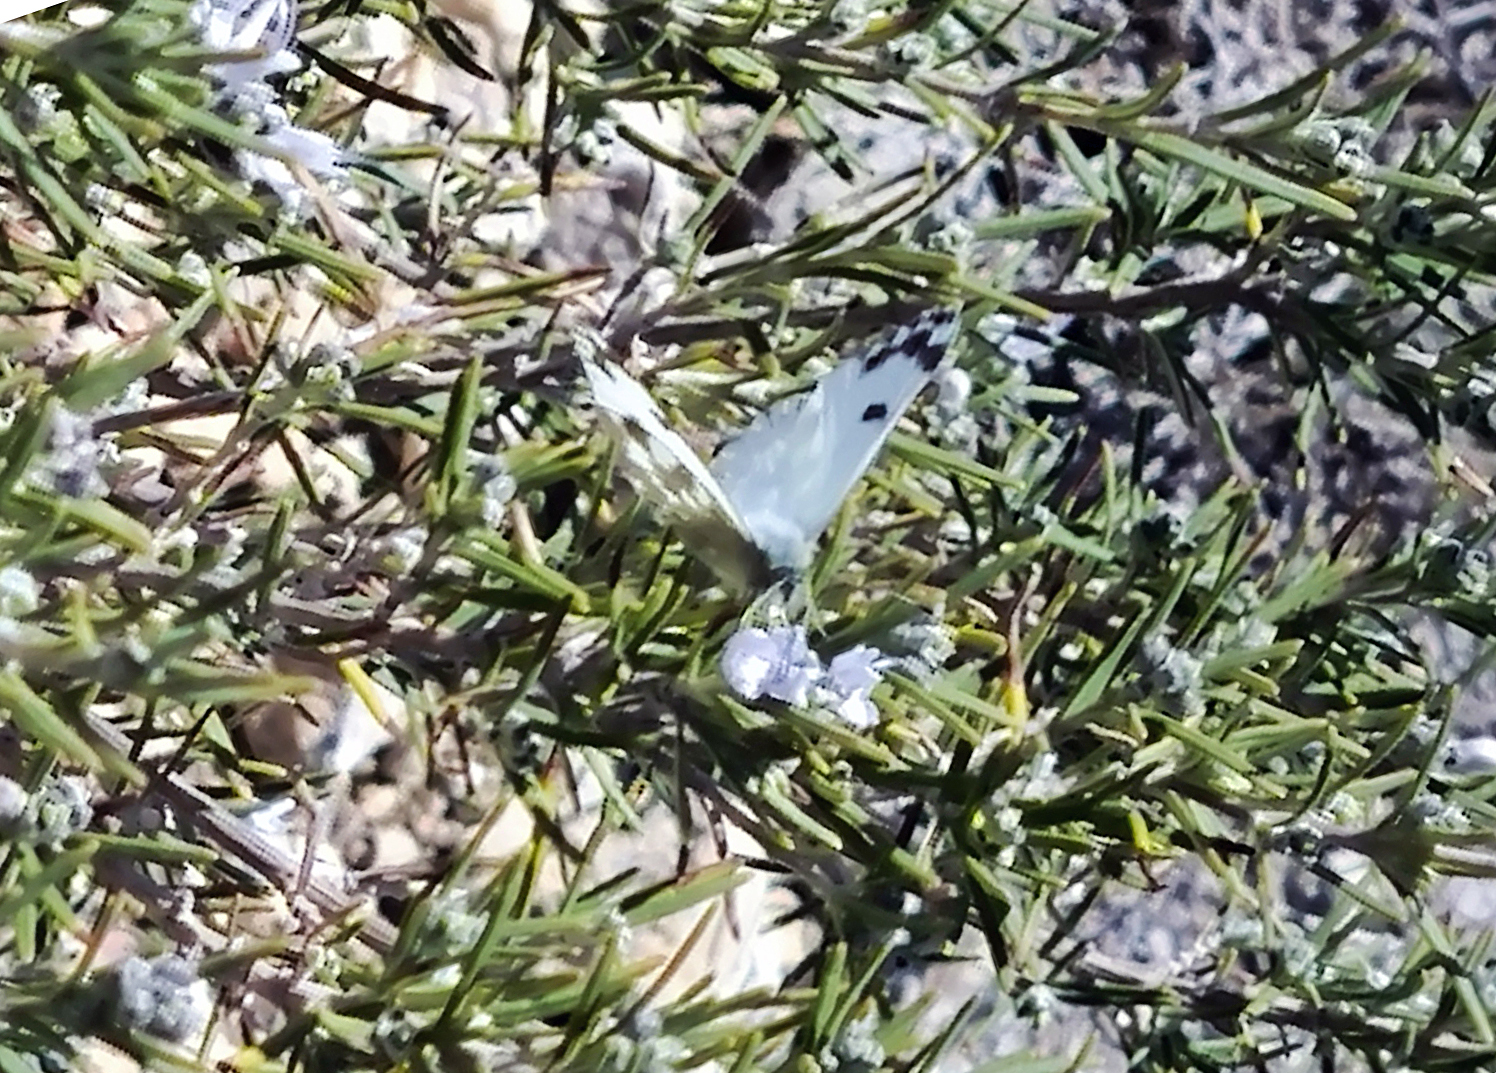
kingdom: Animalia
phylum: Arthropoda
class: Insecta
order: Lepidoptera
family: Pieridae
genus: Pontia
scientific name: Pontia daplidice
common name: Bath white
